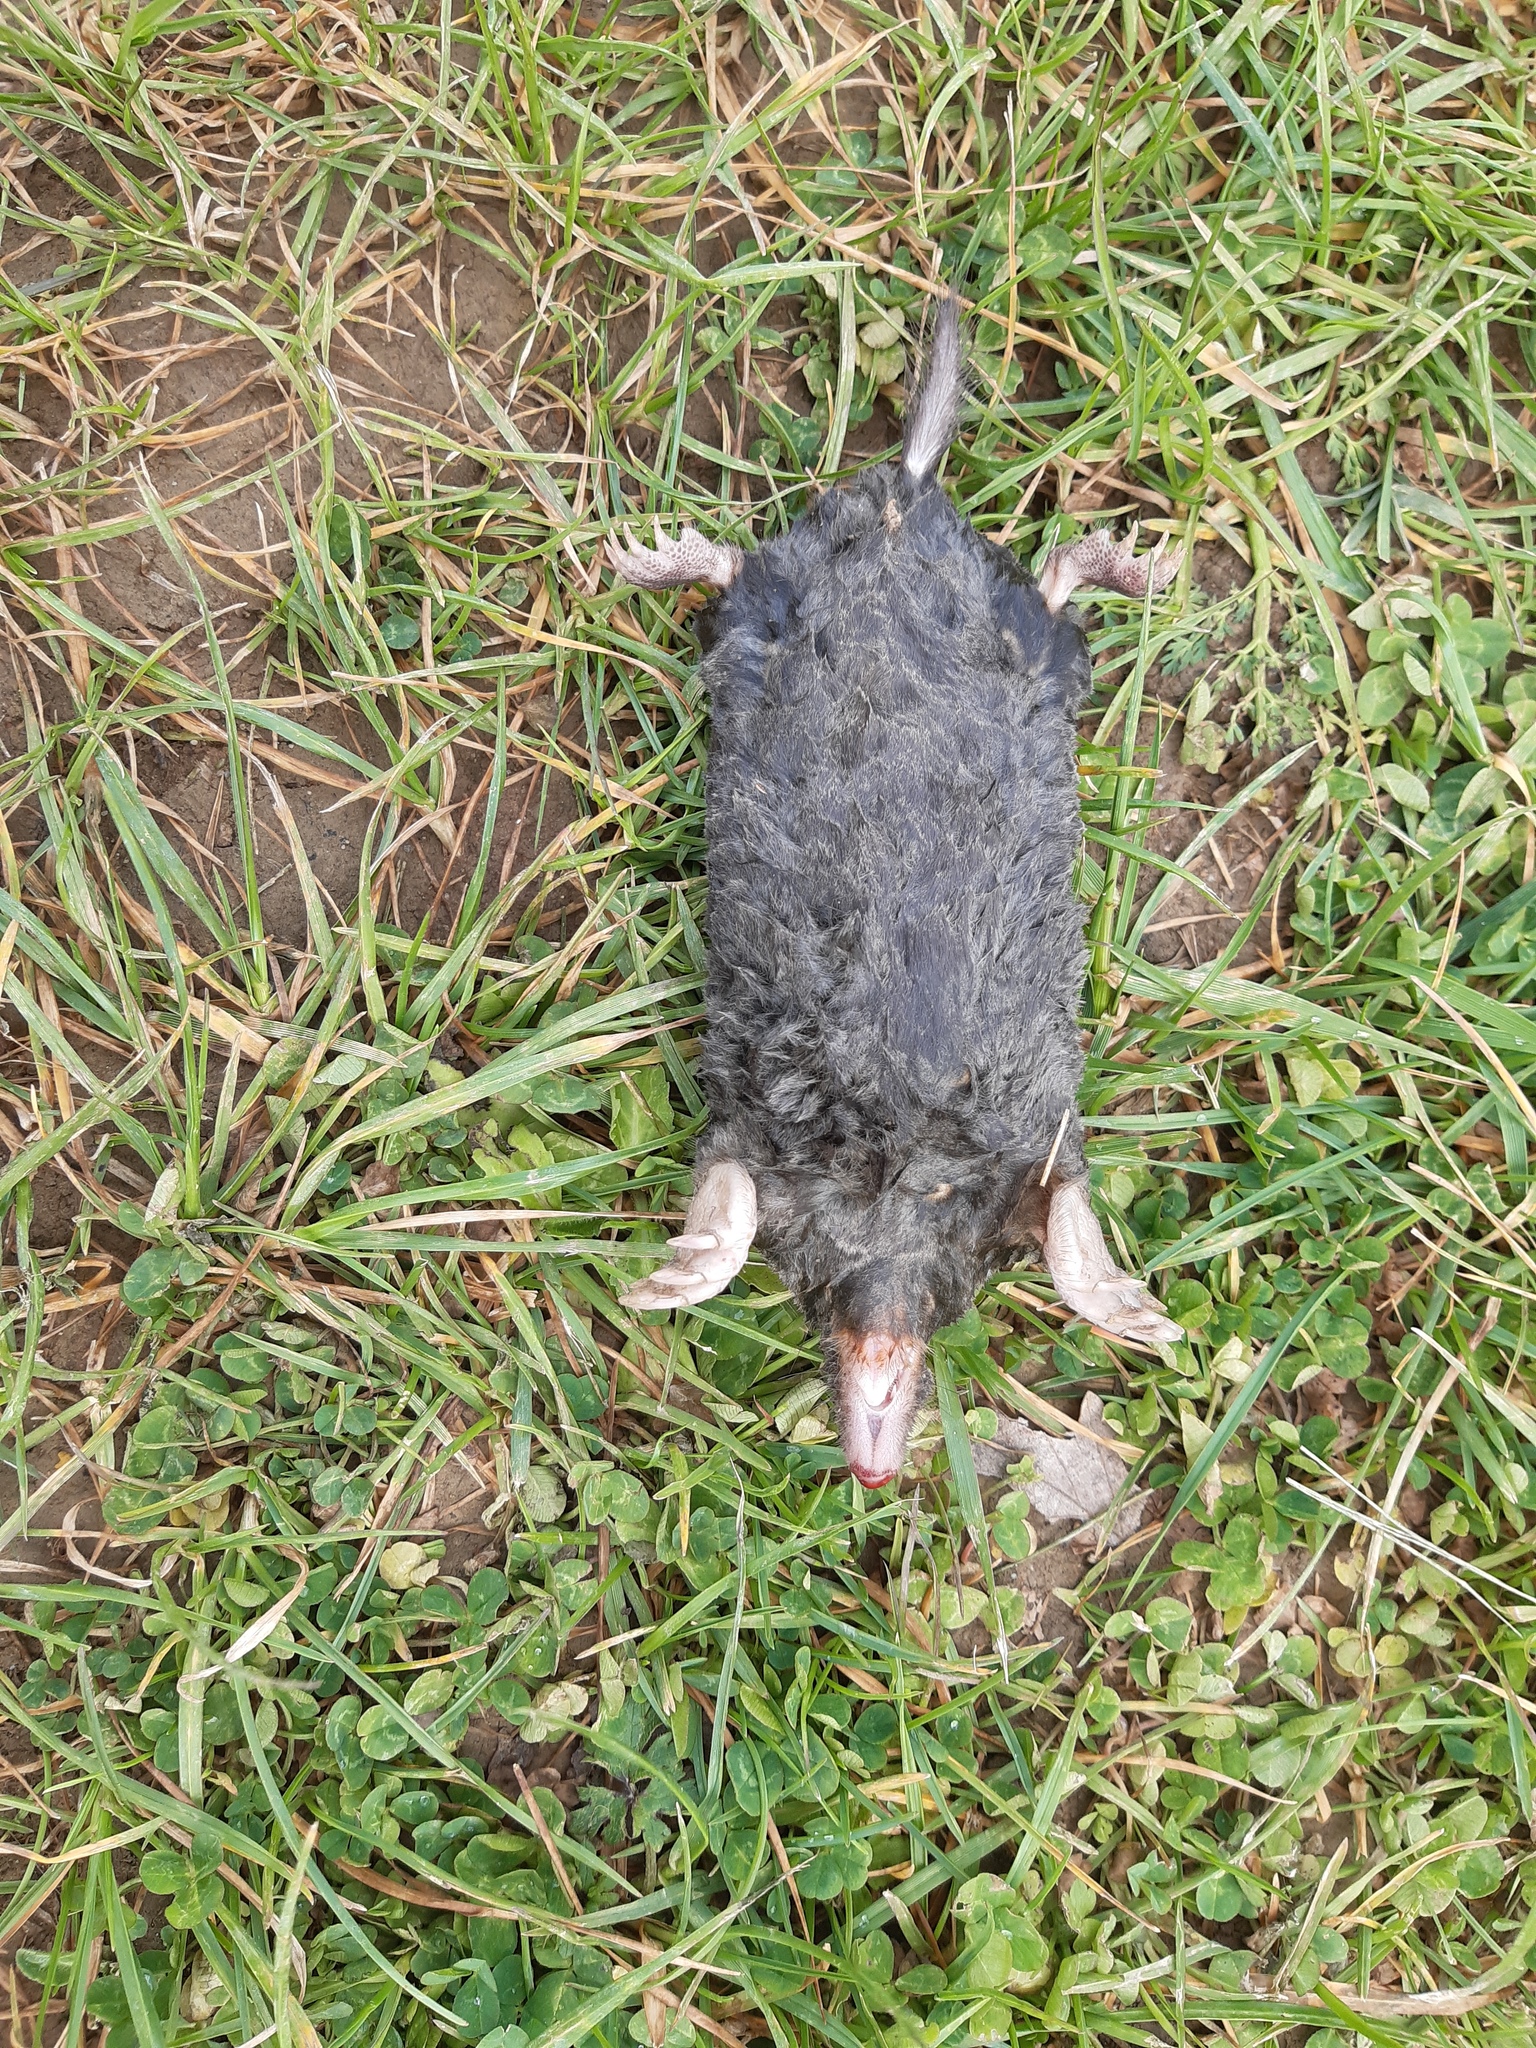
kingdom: Animalia
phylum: Chordata
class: Mammalia
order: Soricomorpha
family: Talpidae
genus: Talpa
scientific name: Talpa aquitania
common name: Aquitanian mole
